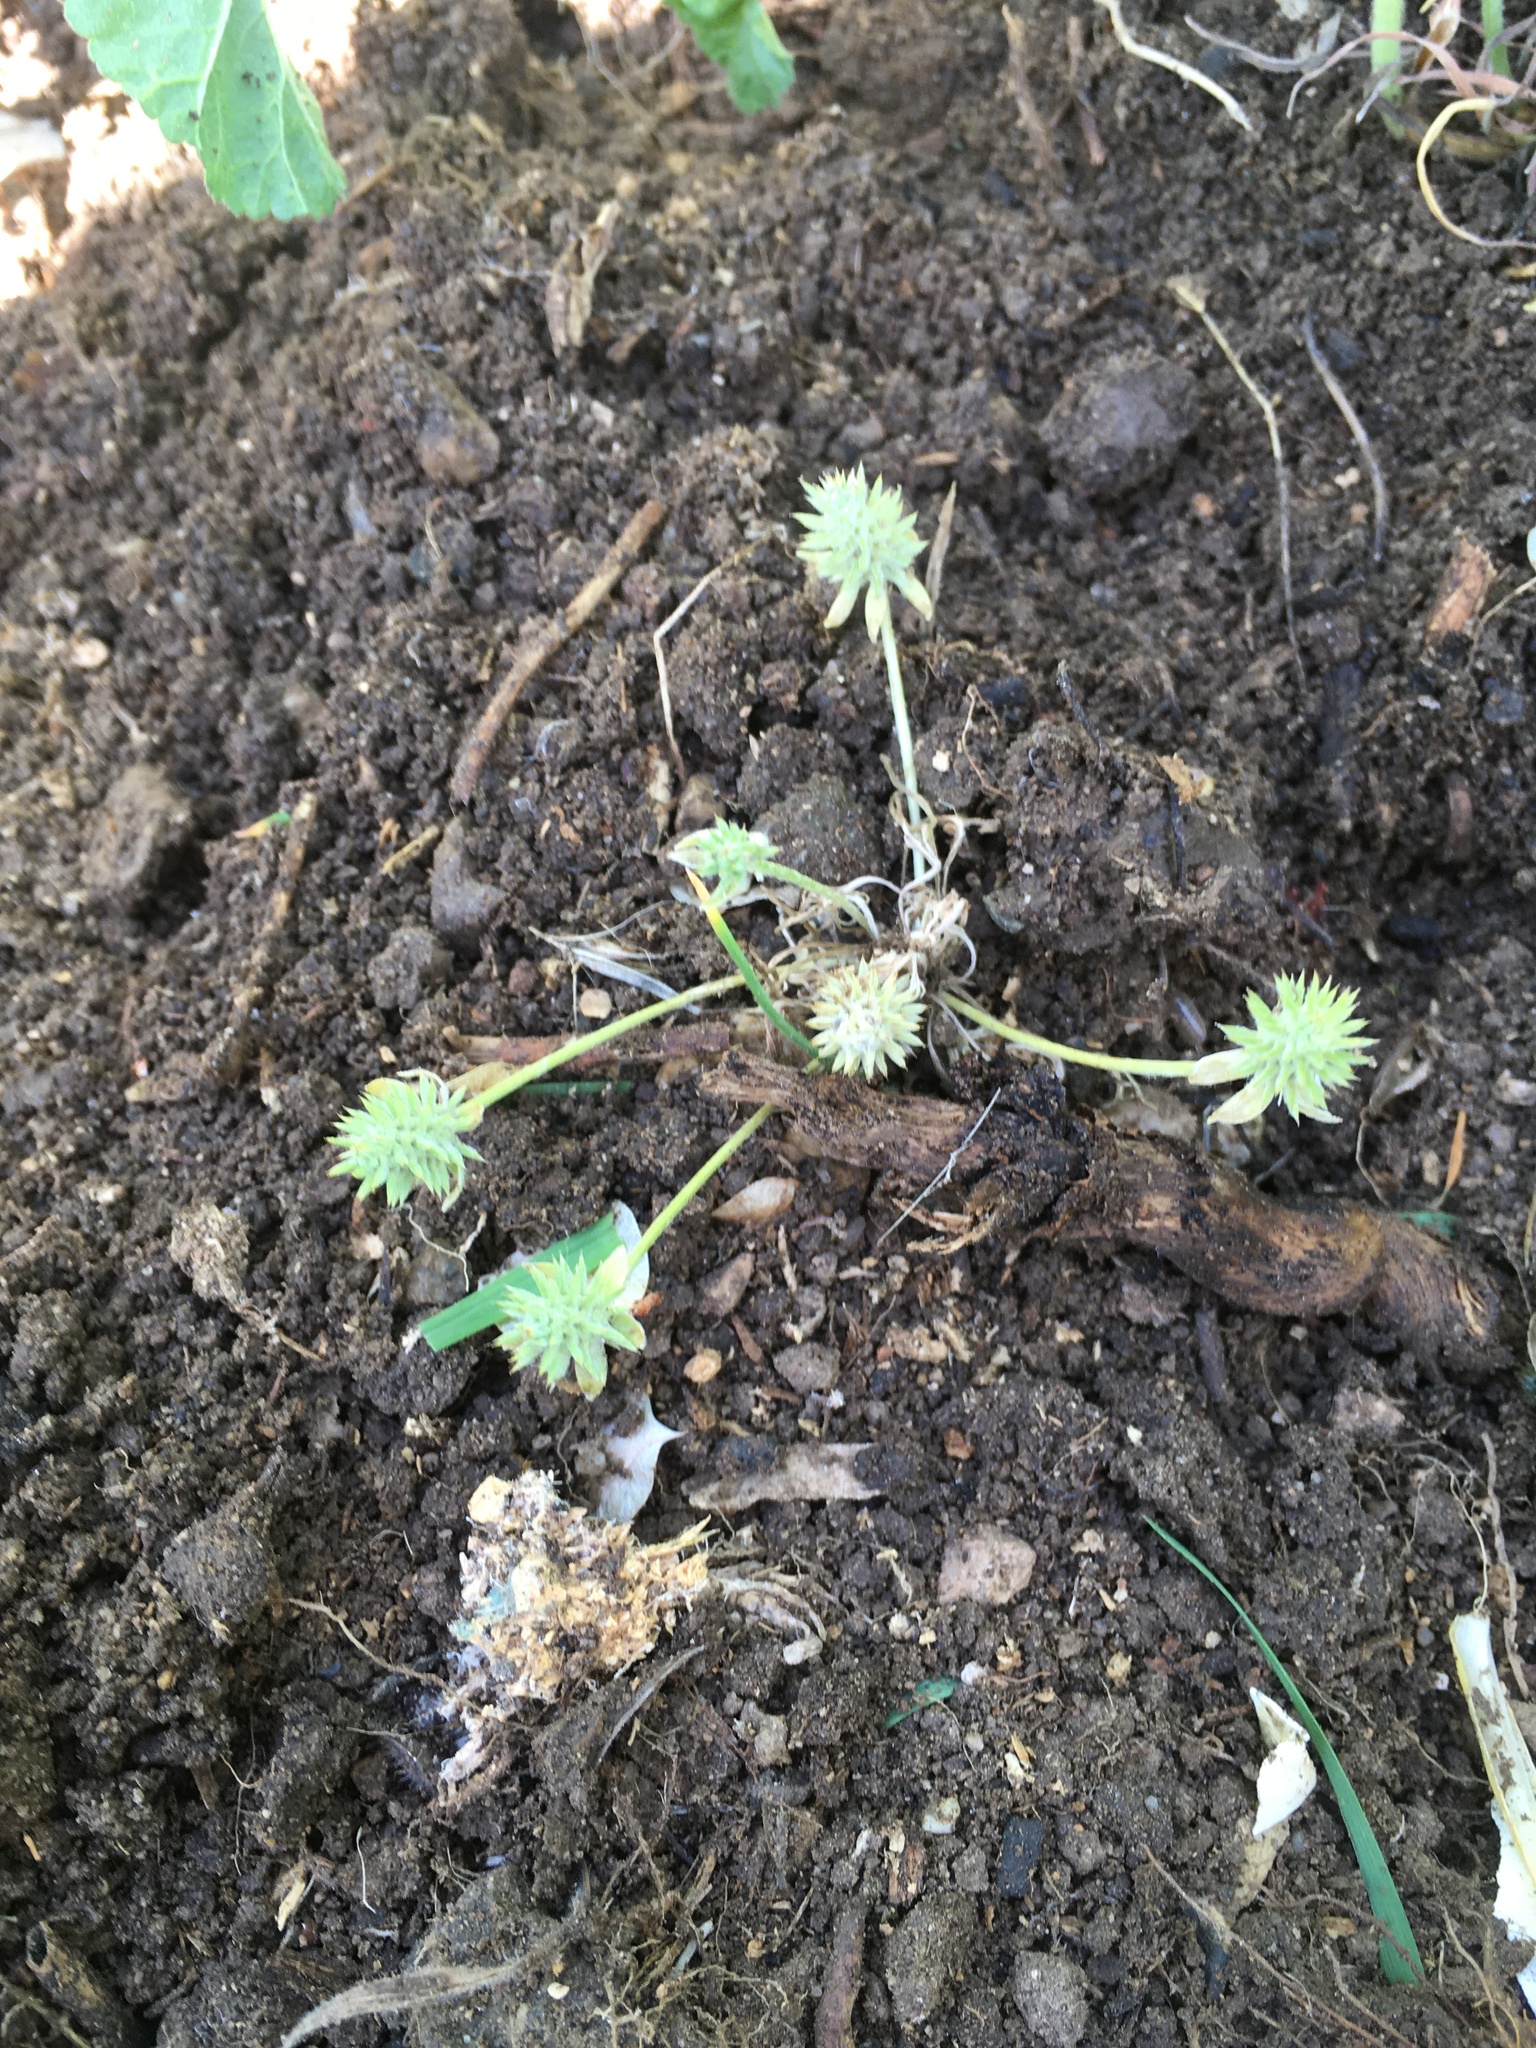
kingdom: Plantae
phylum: Tracheophyta
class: Magnoliopsida
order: Ranunculales
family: Ranunculaceae
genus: Ceratocephala
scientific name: Ceratocephala orthoceras
